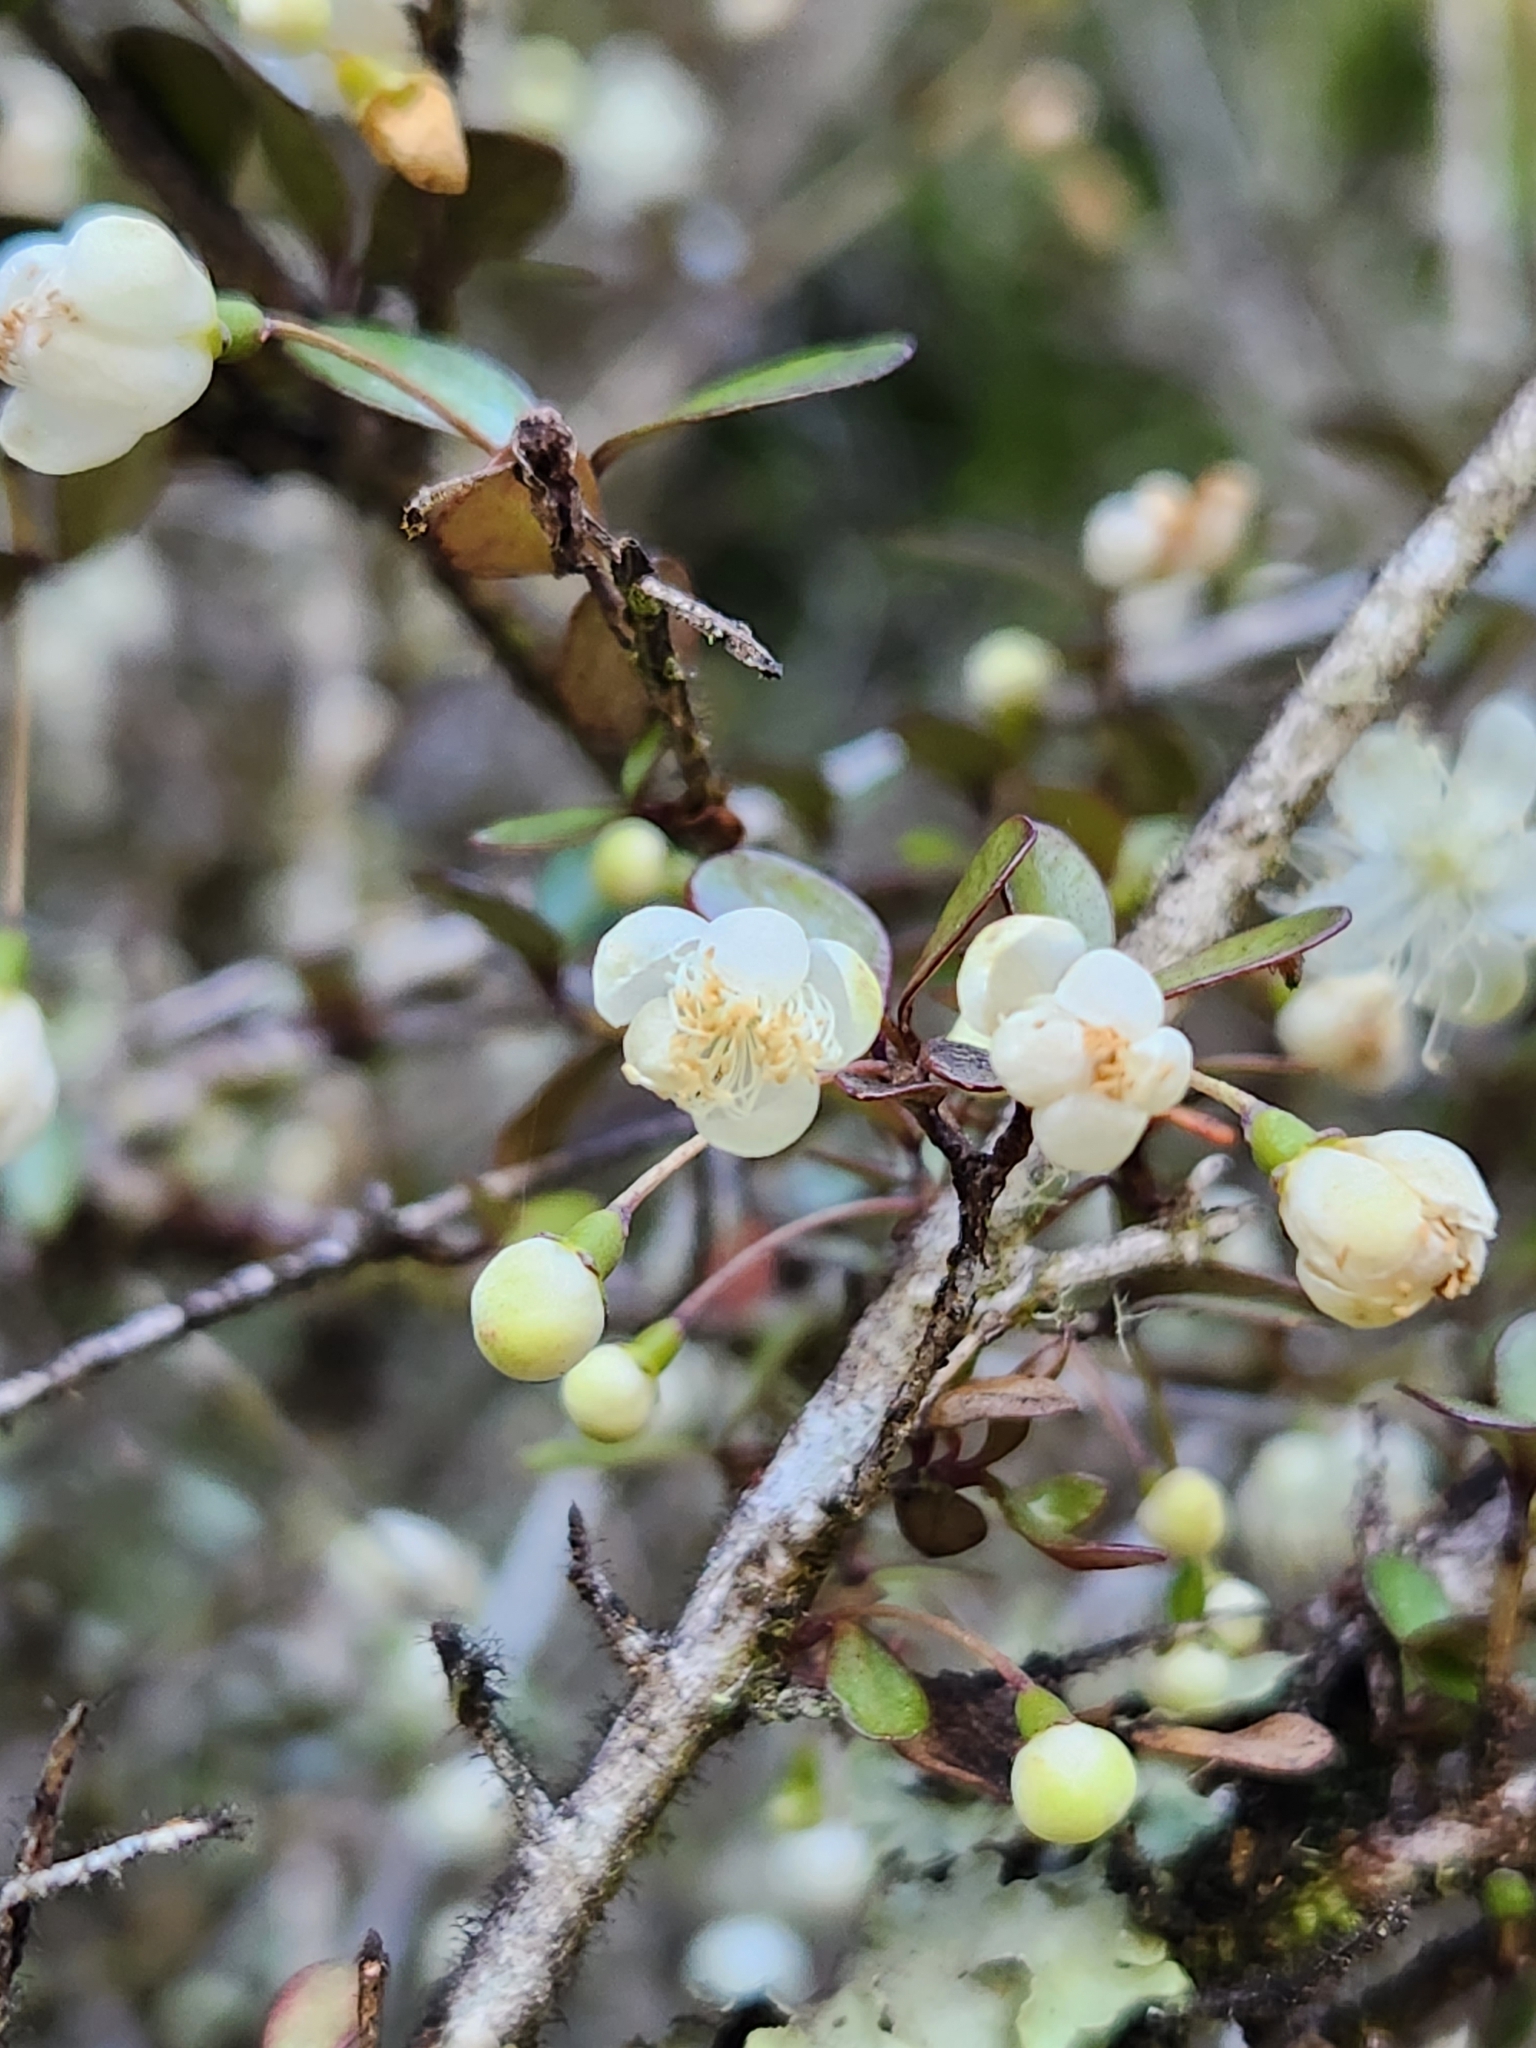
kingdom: Plantae
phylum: Tracheophyta
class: Magnoliopsida
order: Myrtales
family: Myrtaceae
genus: Neomyrtus
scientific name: Neomyrtus pedunculata
